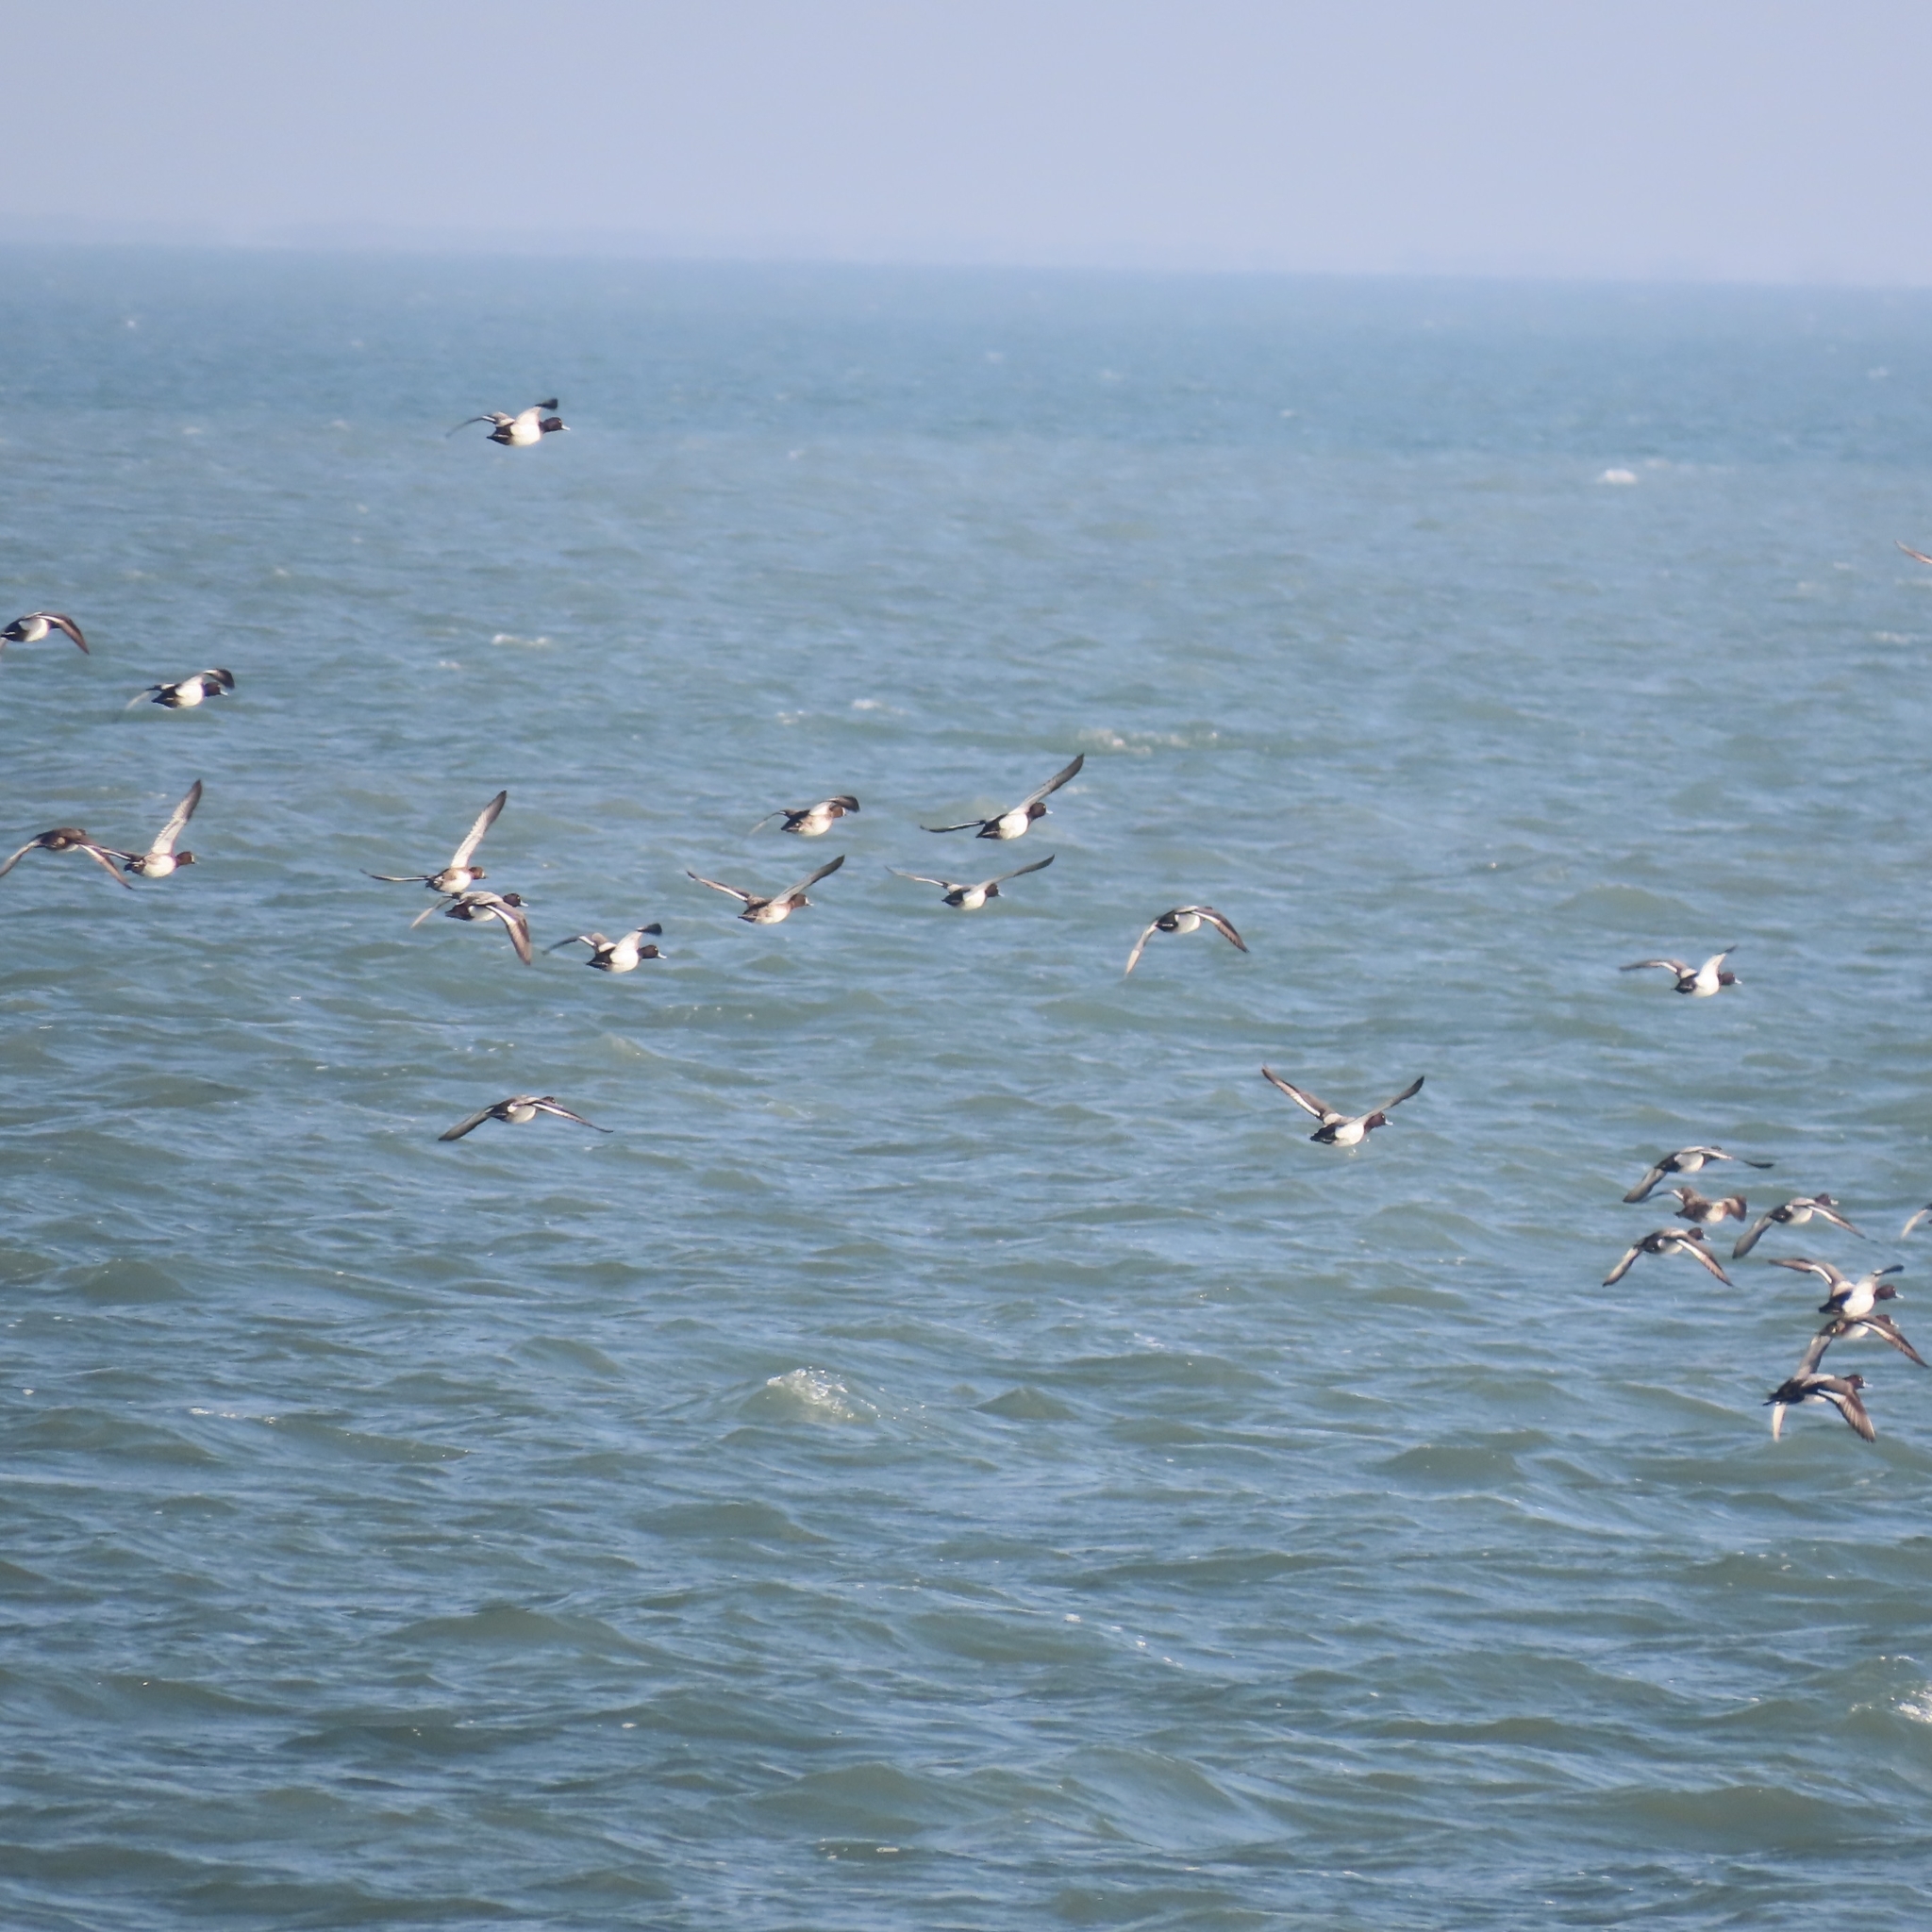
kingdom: Animalia
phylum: Chordata
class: Aves
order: Anseriformes
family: Anatidae
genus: Aythya
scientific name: Aythya affinis
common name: Lesser scaup
